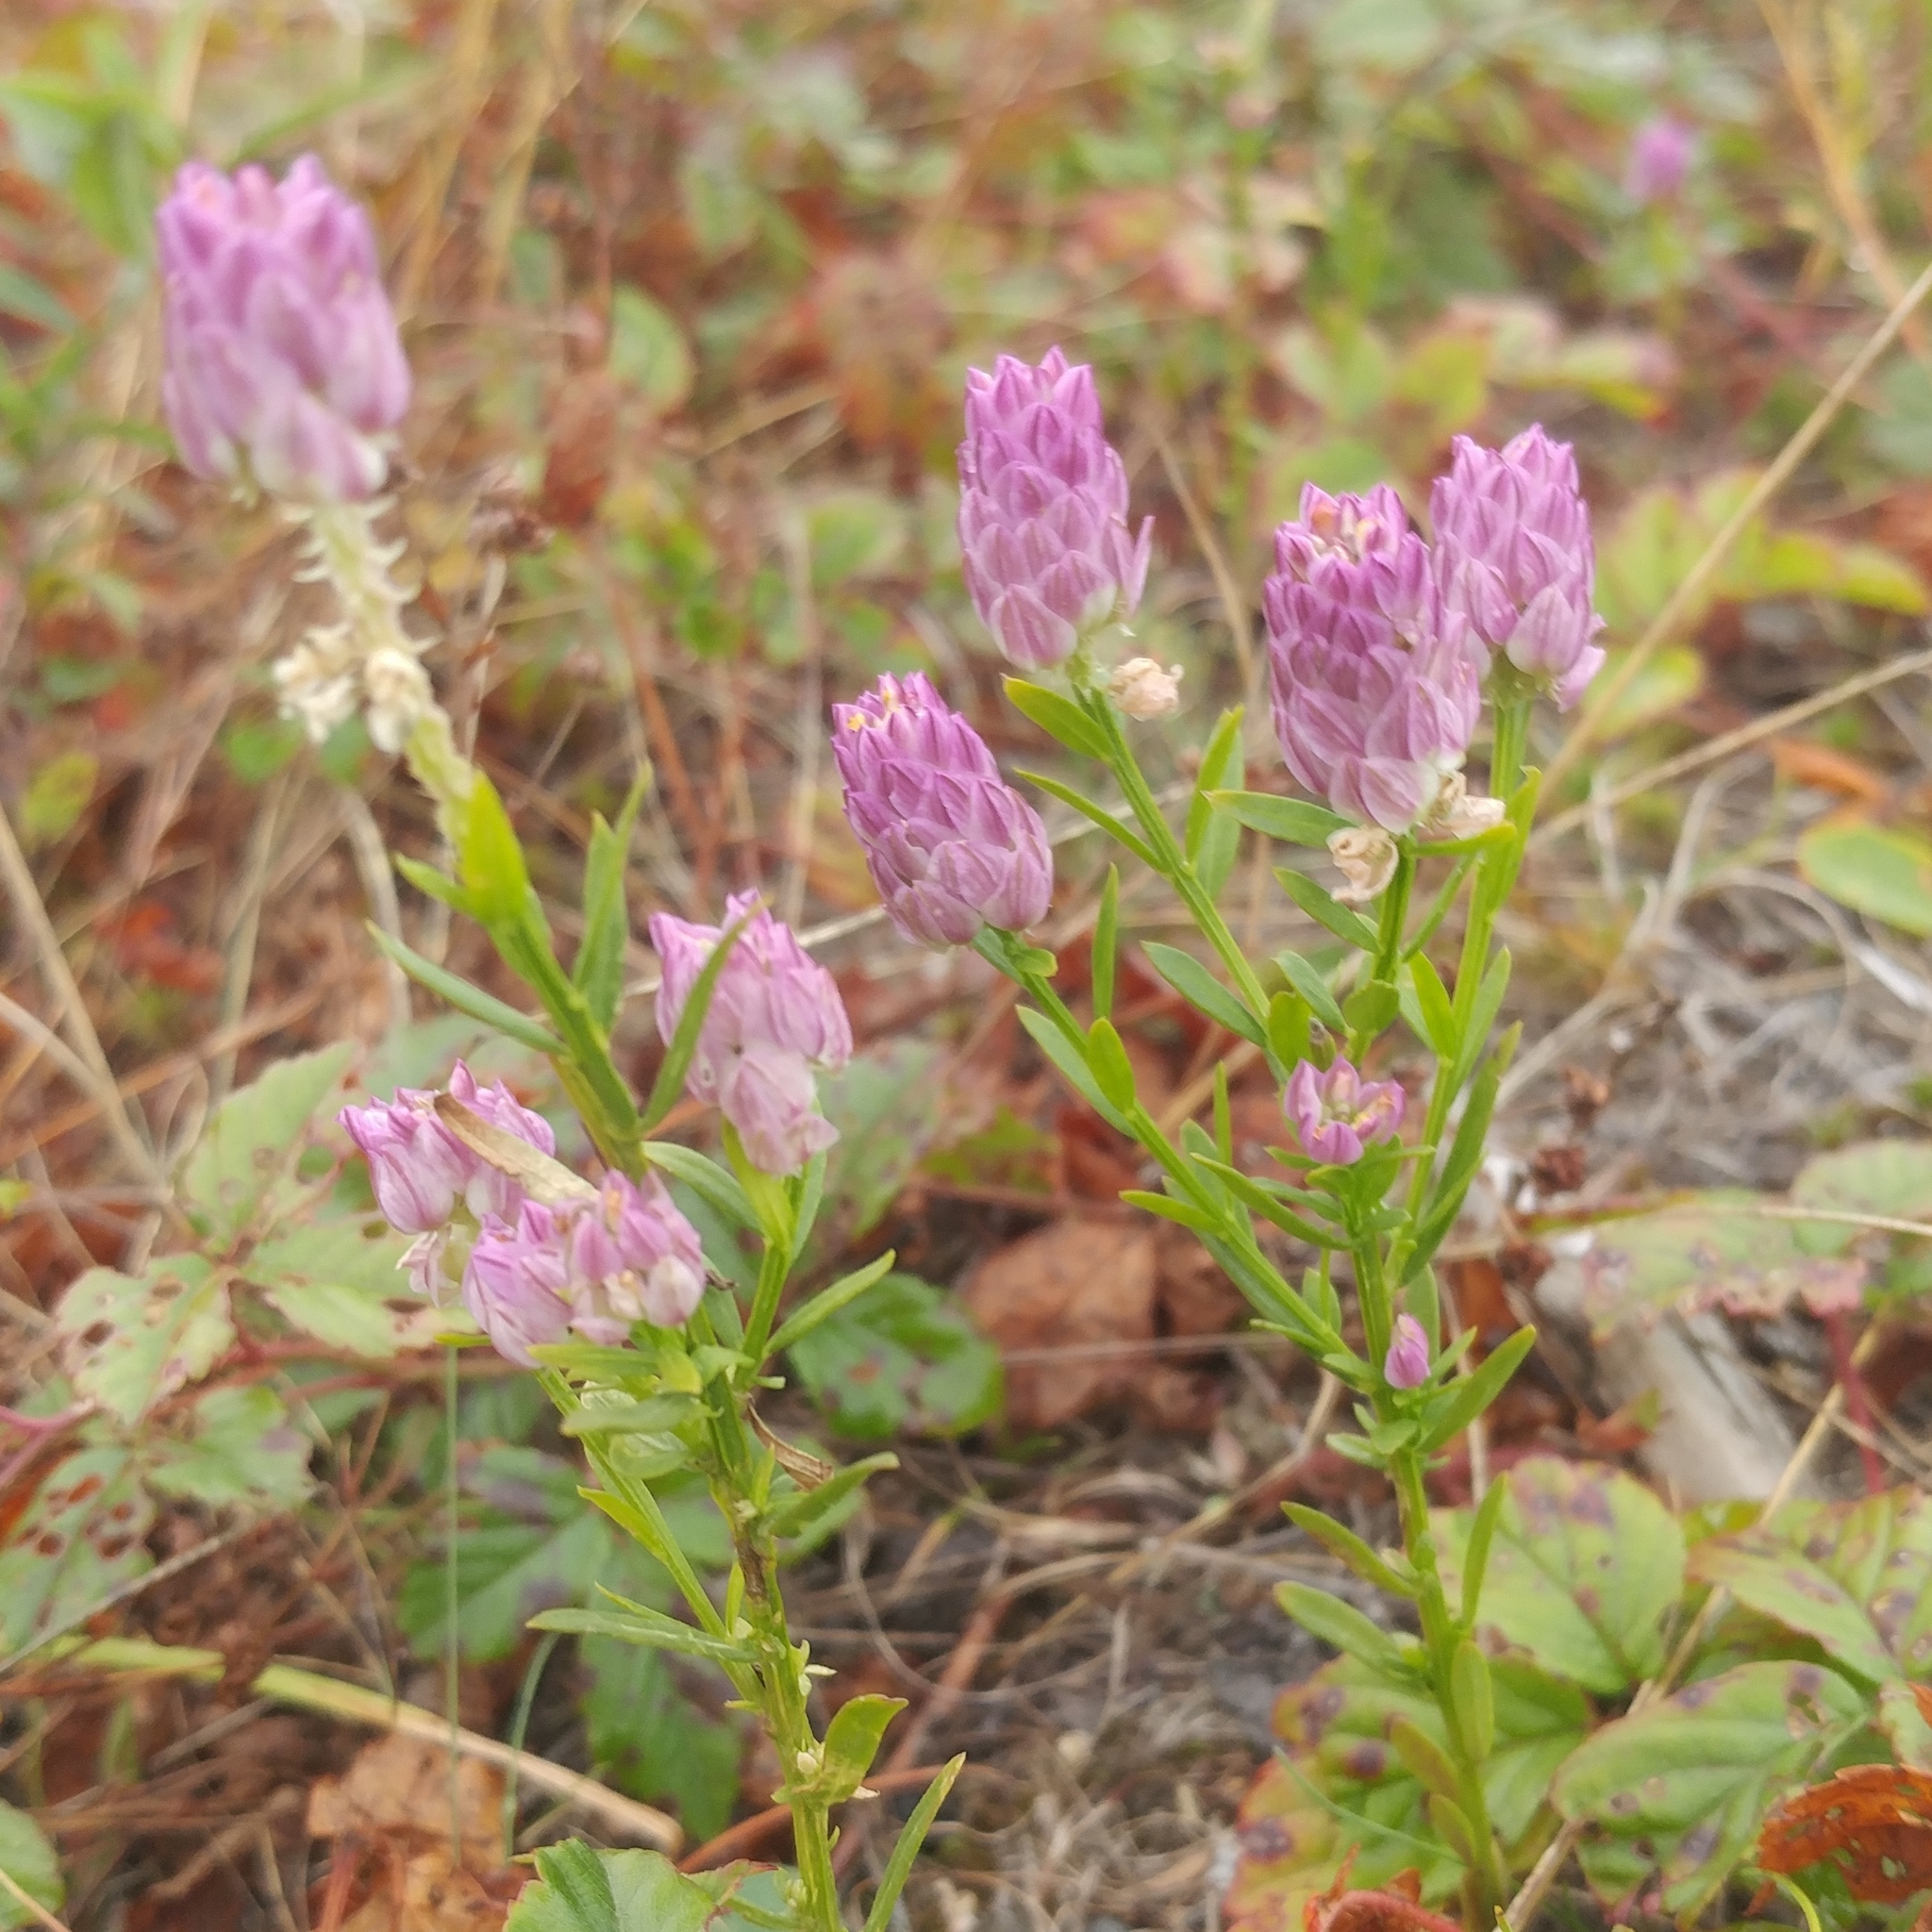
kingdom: Plantae
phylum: Tracheophyta
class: Magnoliopsida
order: Fabales
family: Polygalaceae
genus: Polygala
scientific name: Polygala sanguinea
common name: Blood milkwort
